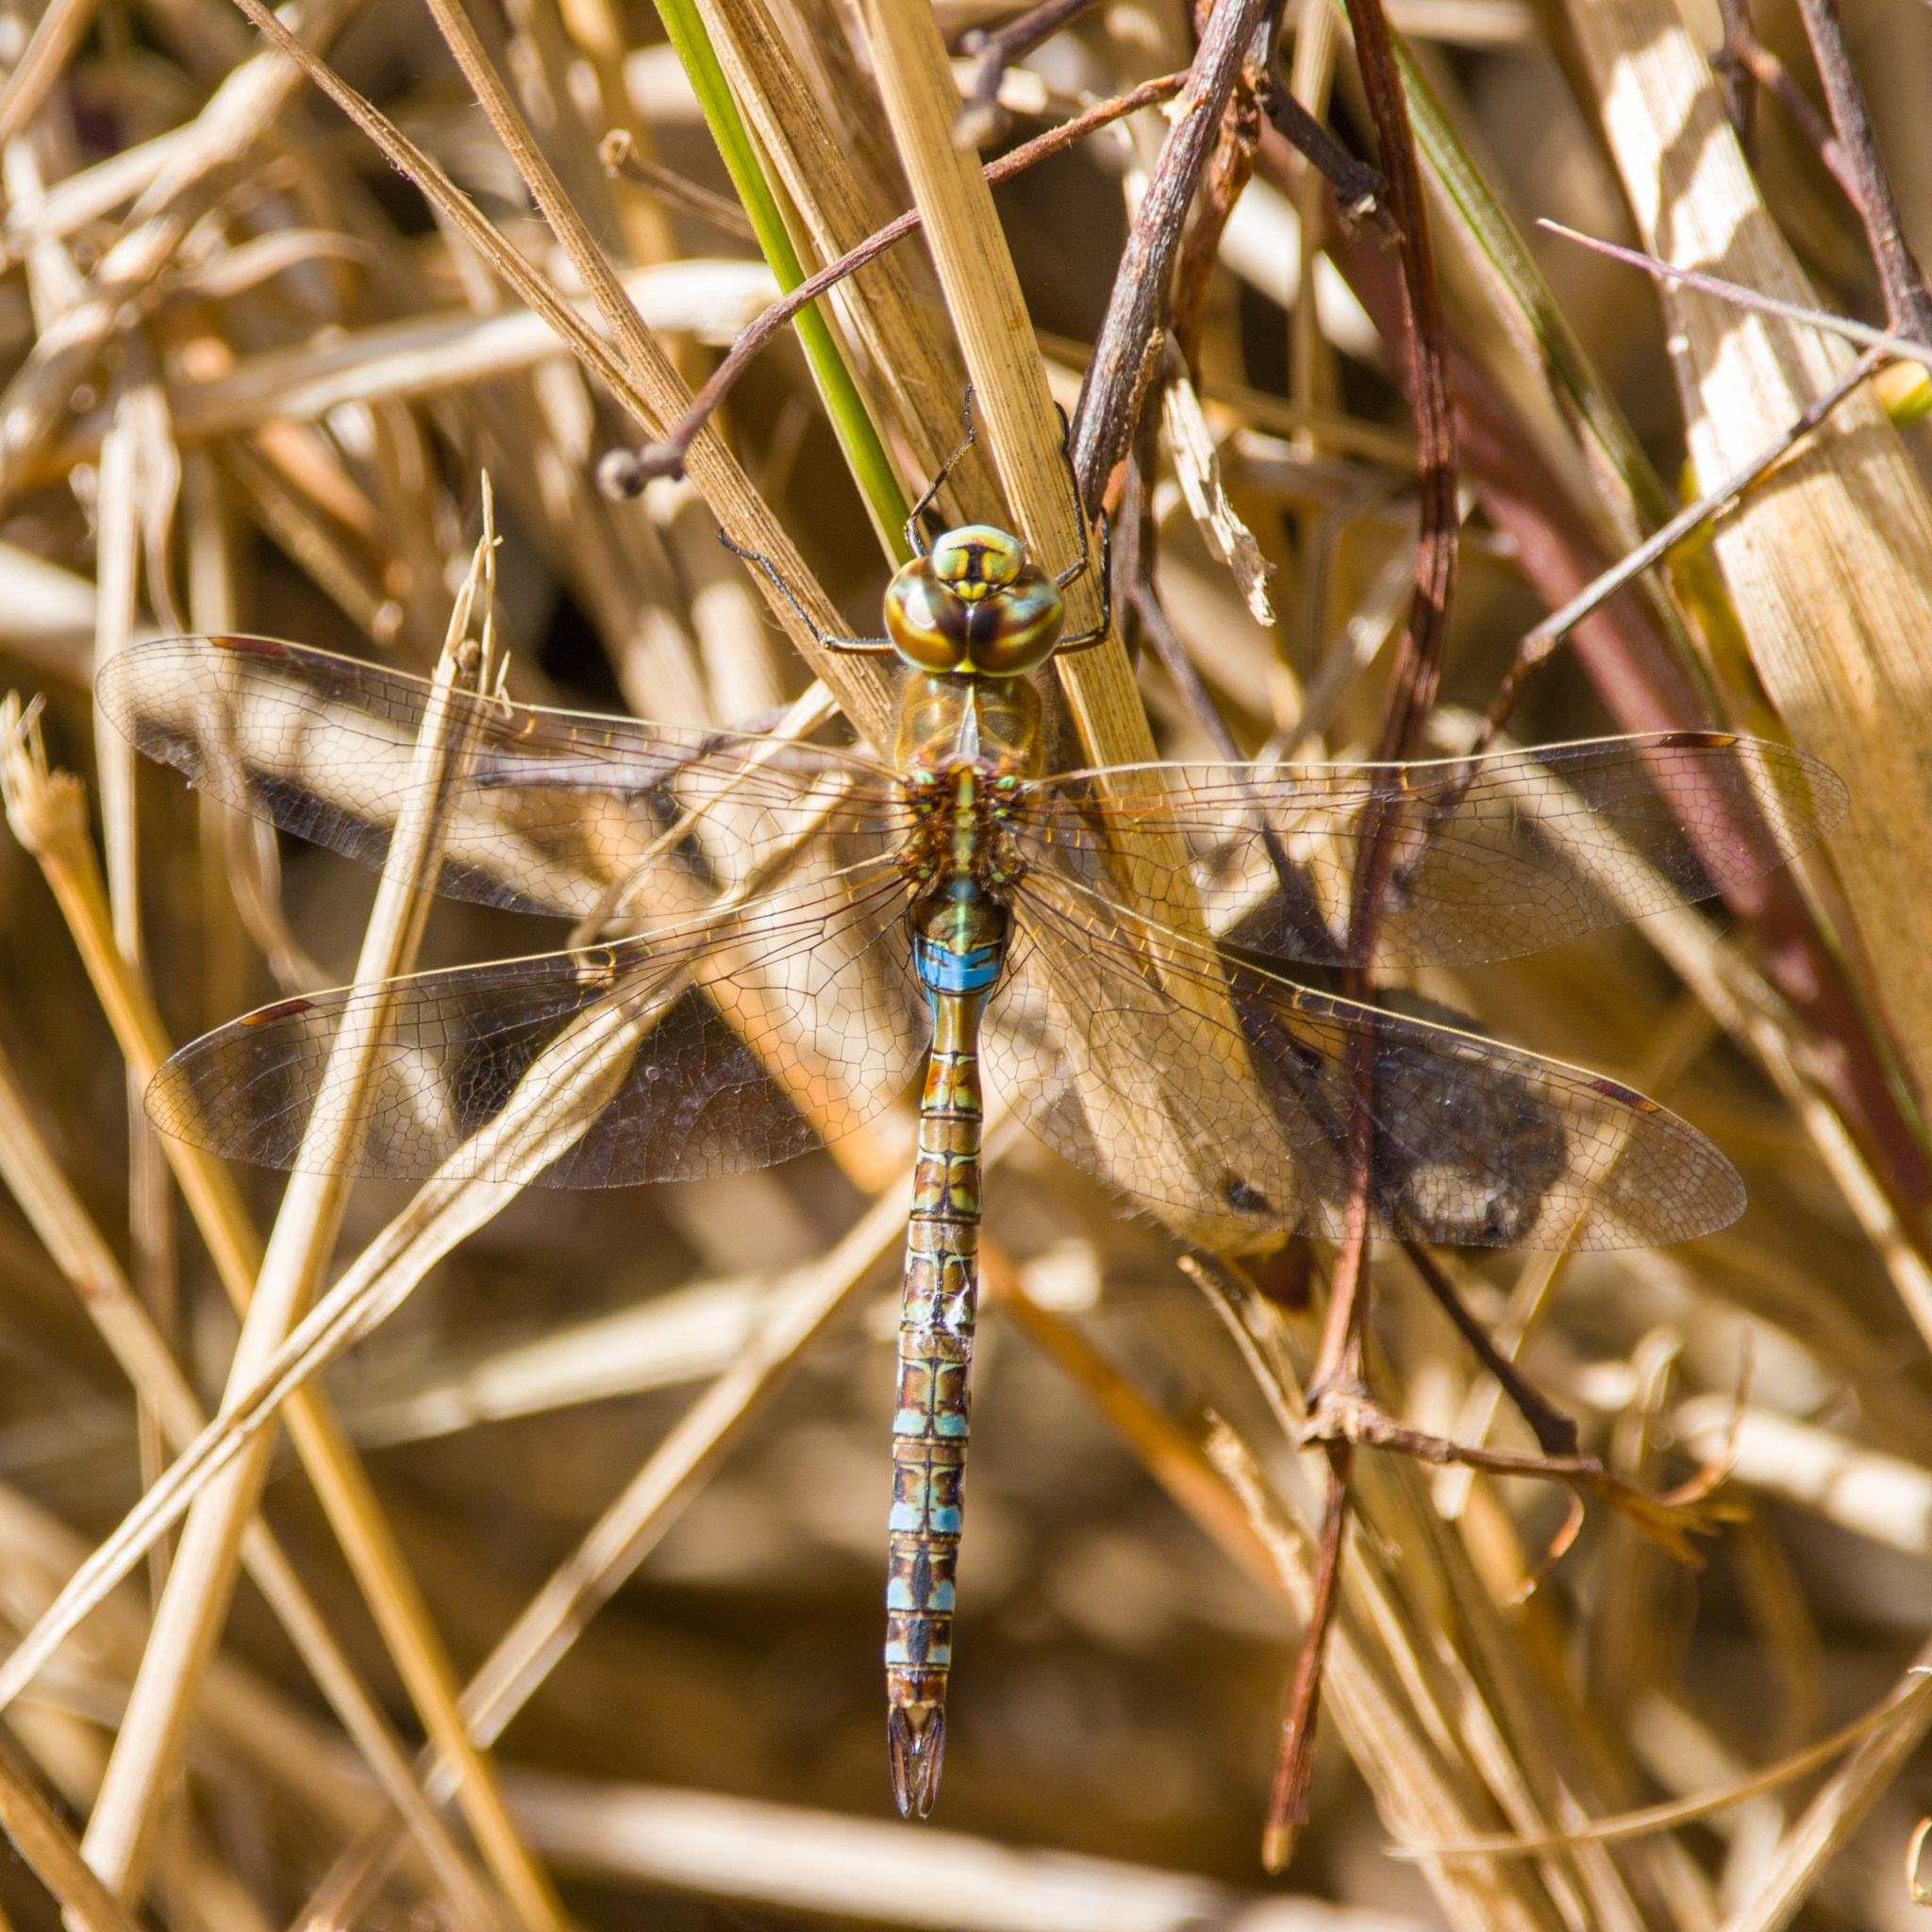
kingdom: Animalia
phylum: Arthropoda
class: Insecta
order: Odonata
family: Aeshnidae
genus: Rhionaeschna
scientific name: Rhionaeschna bonariensis
